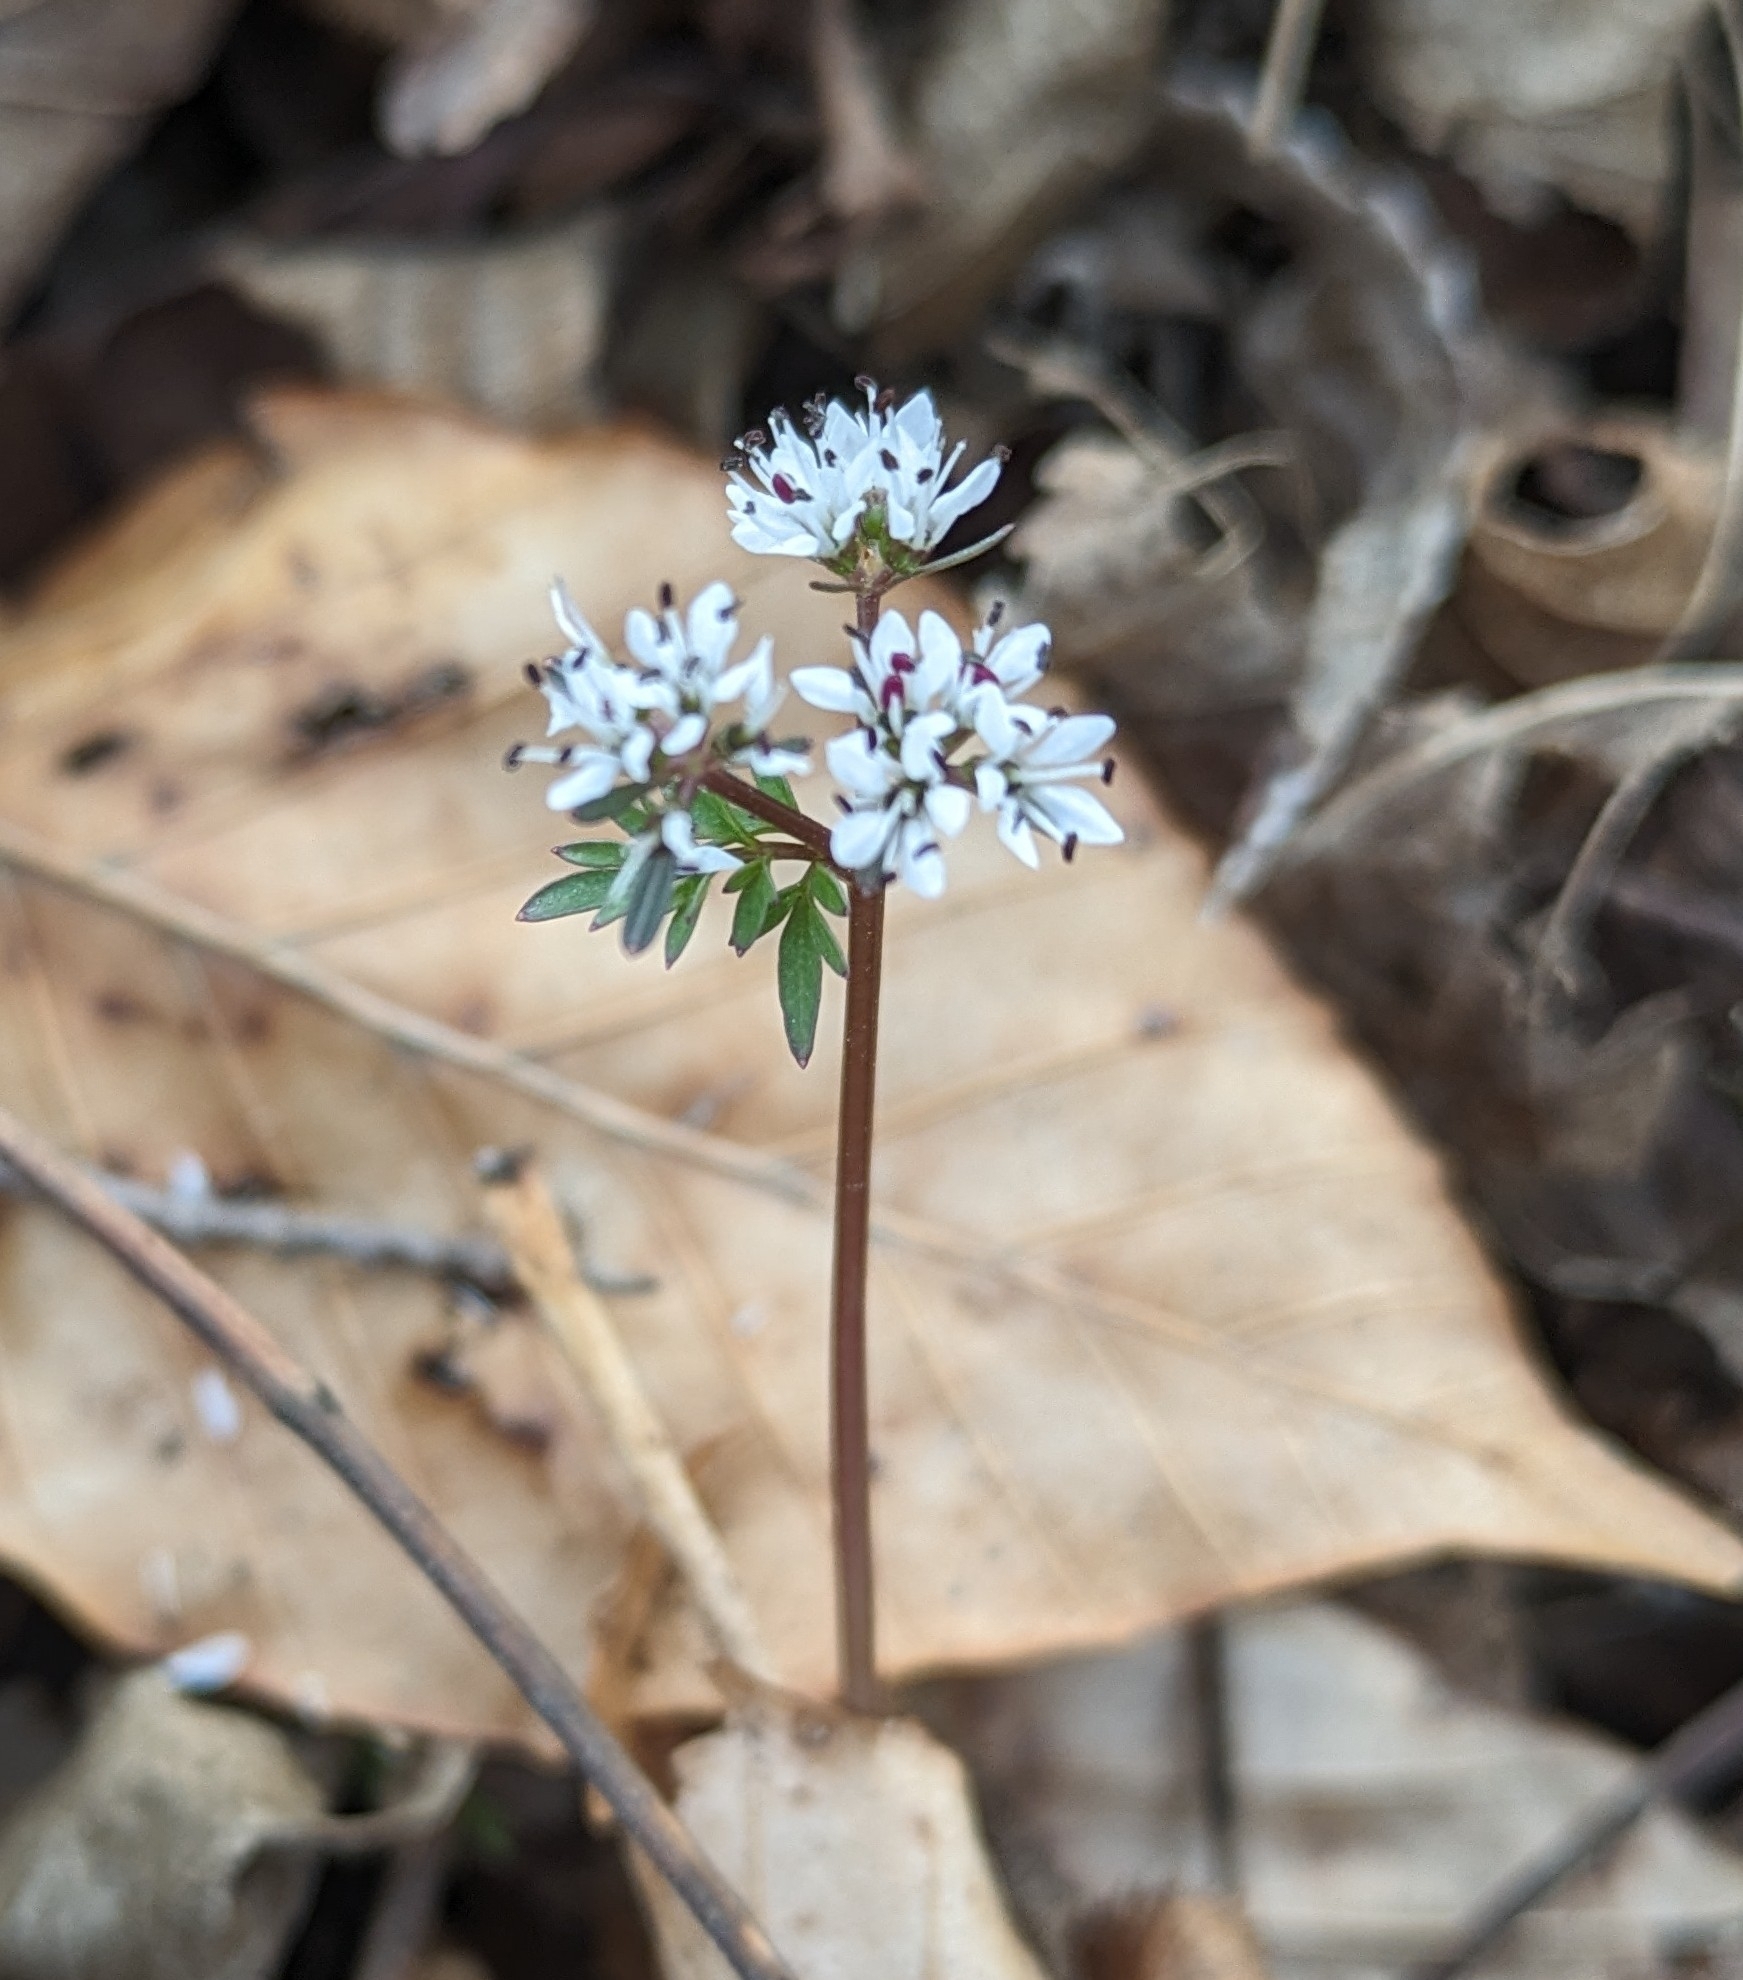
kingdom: Plantae
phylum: Tracheophyta
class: Magnoliopsida
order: Apiales
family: Apiaceae
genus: Erigenia
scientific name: Erigenia bulbosa
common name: Pepper-and-salt
